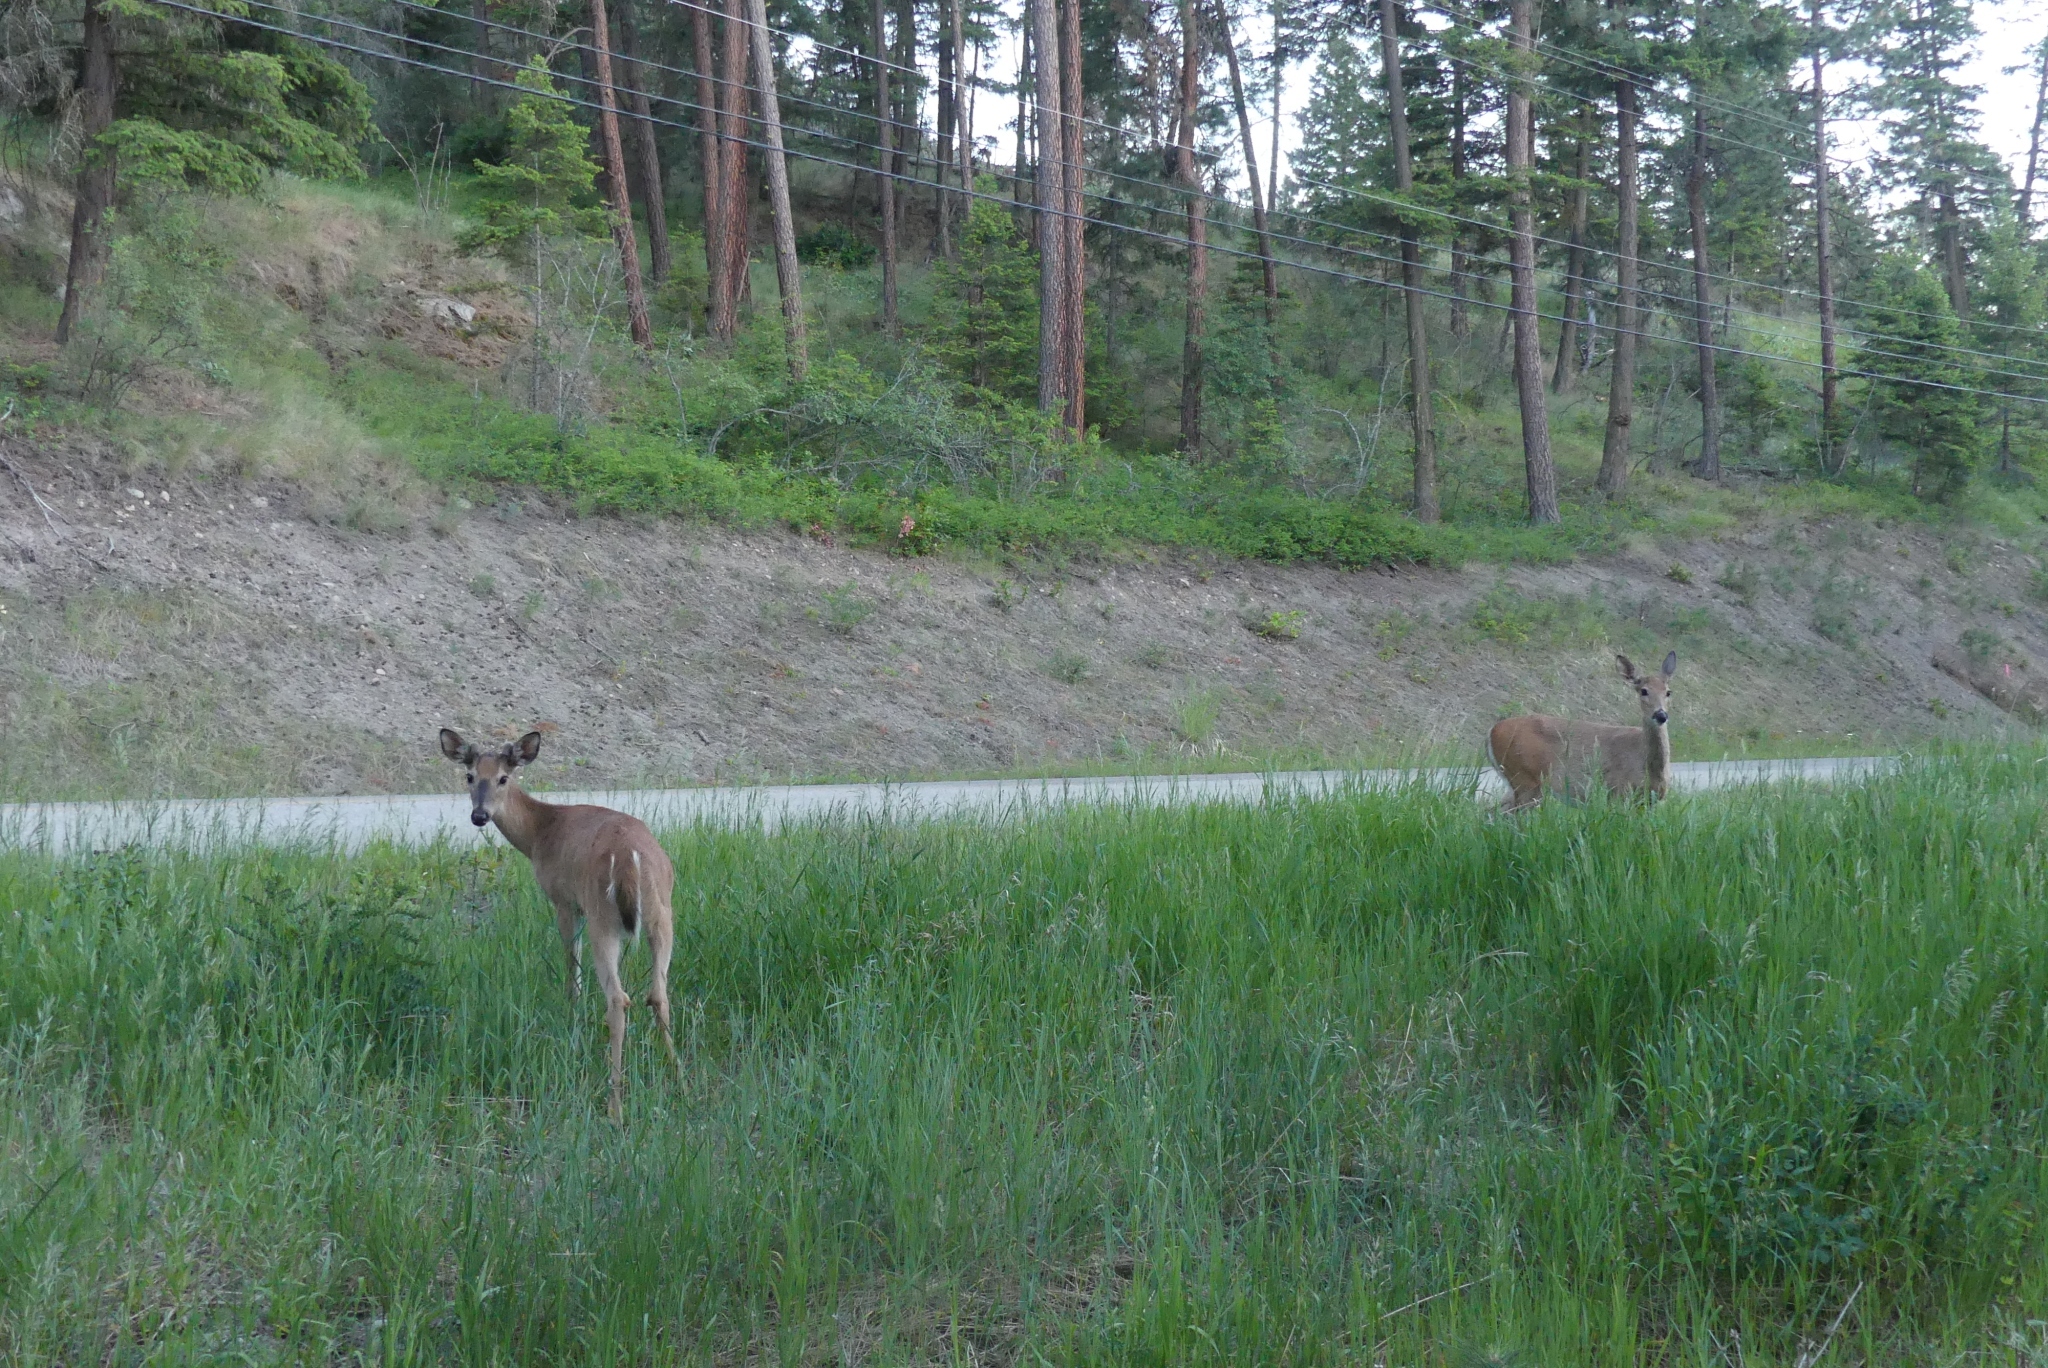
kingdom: Animalia
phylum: Chordata
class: Mammalia
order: Artiodactyla
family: Cervidae
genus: Odocoileus
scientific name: Odocoileus virginianus
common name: White-tailed deer
